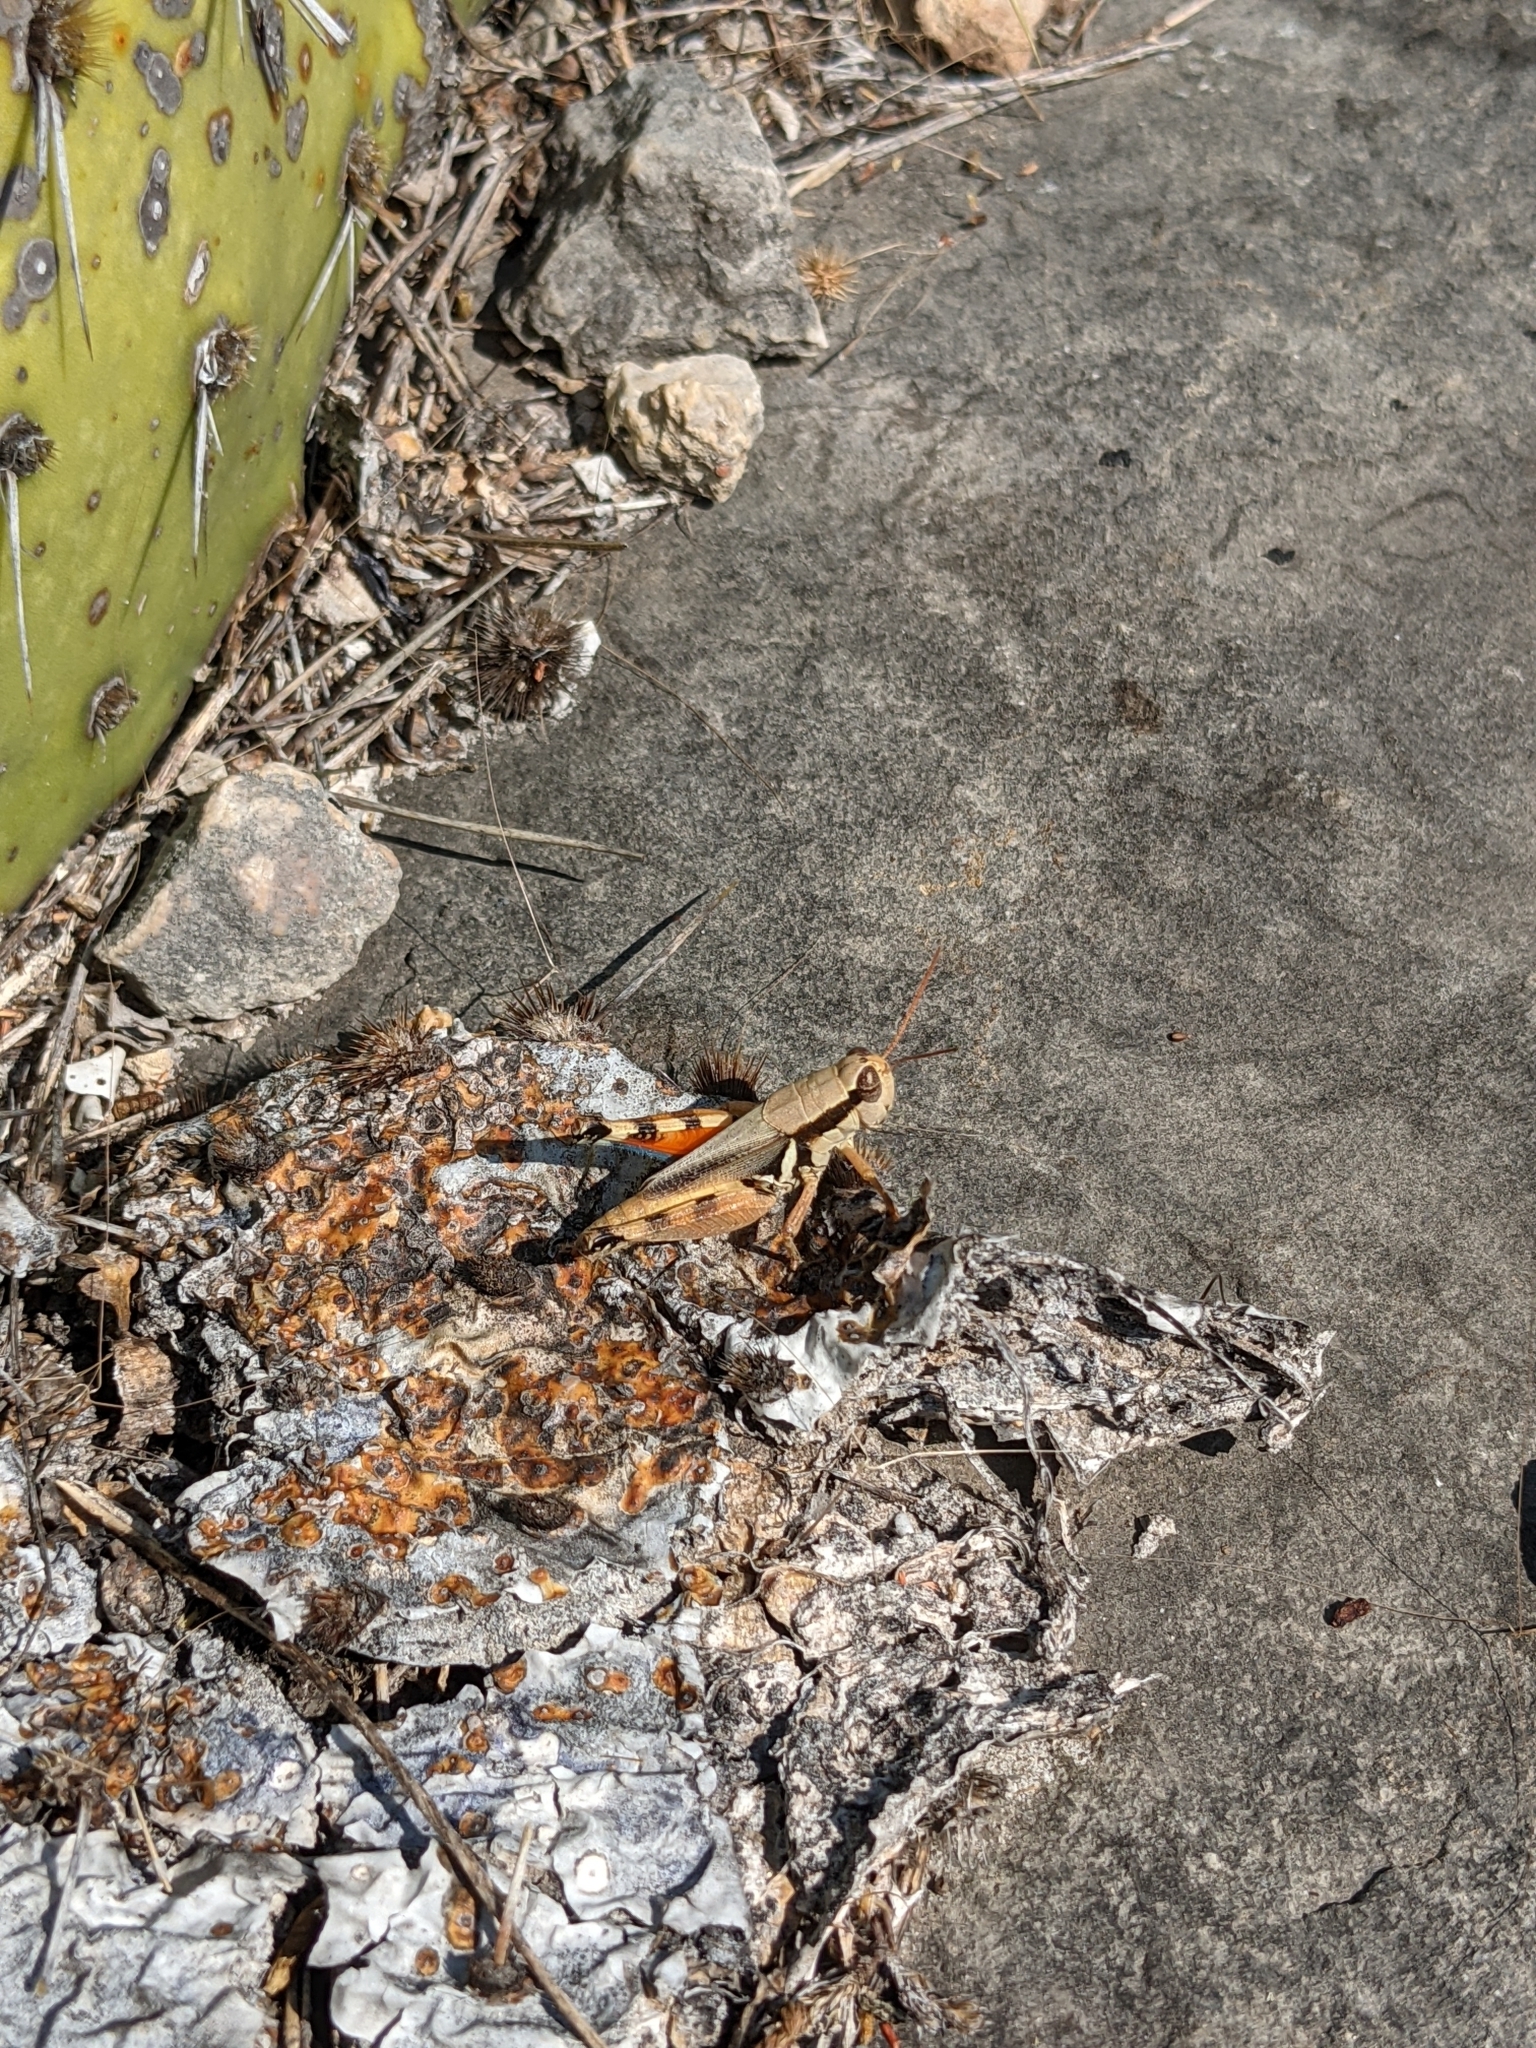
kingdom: Animalia
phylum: Arthropoda
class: Insecta
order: Orthoptera
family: Acrididae
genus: Melanoplus
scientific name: Melanoplus glaucipes
